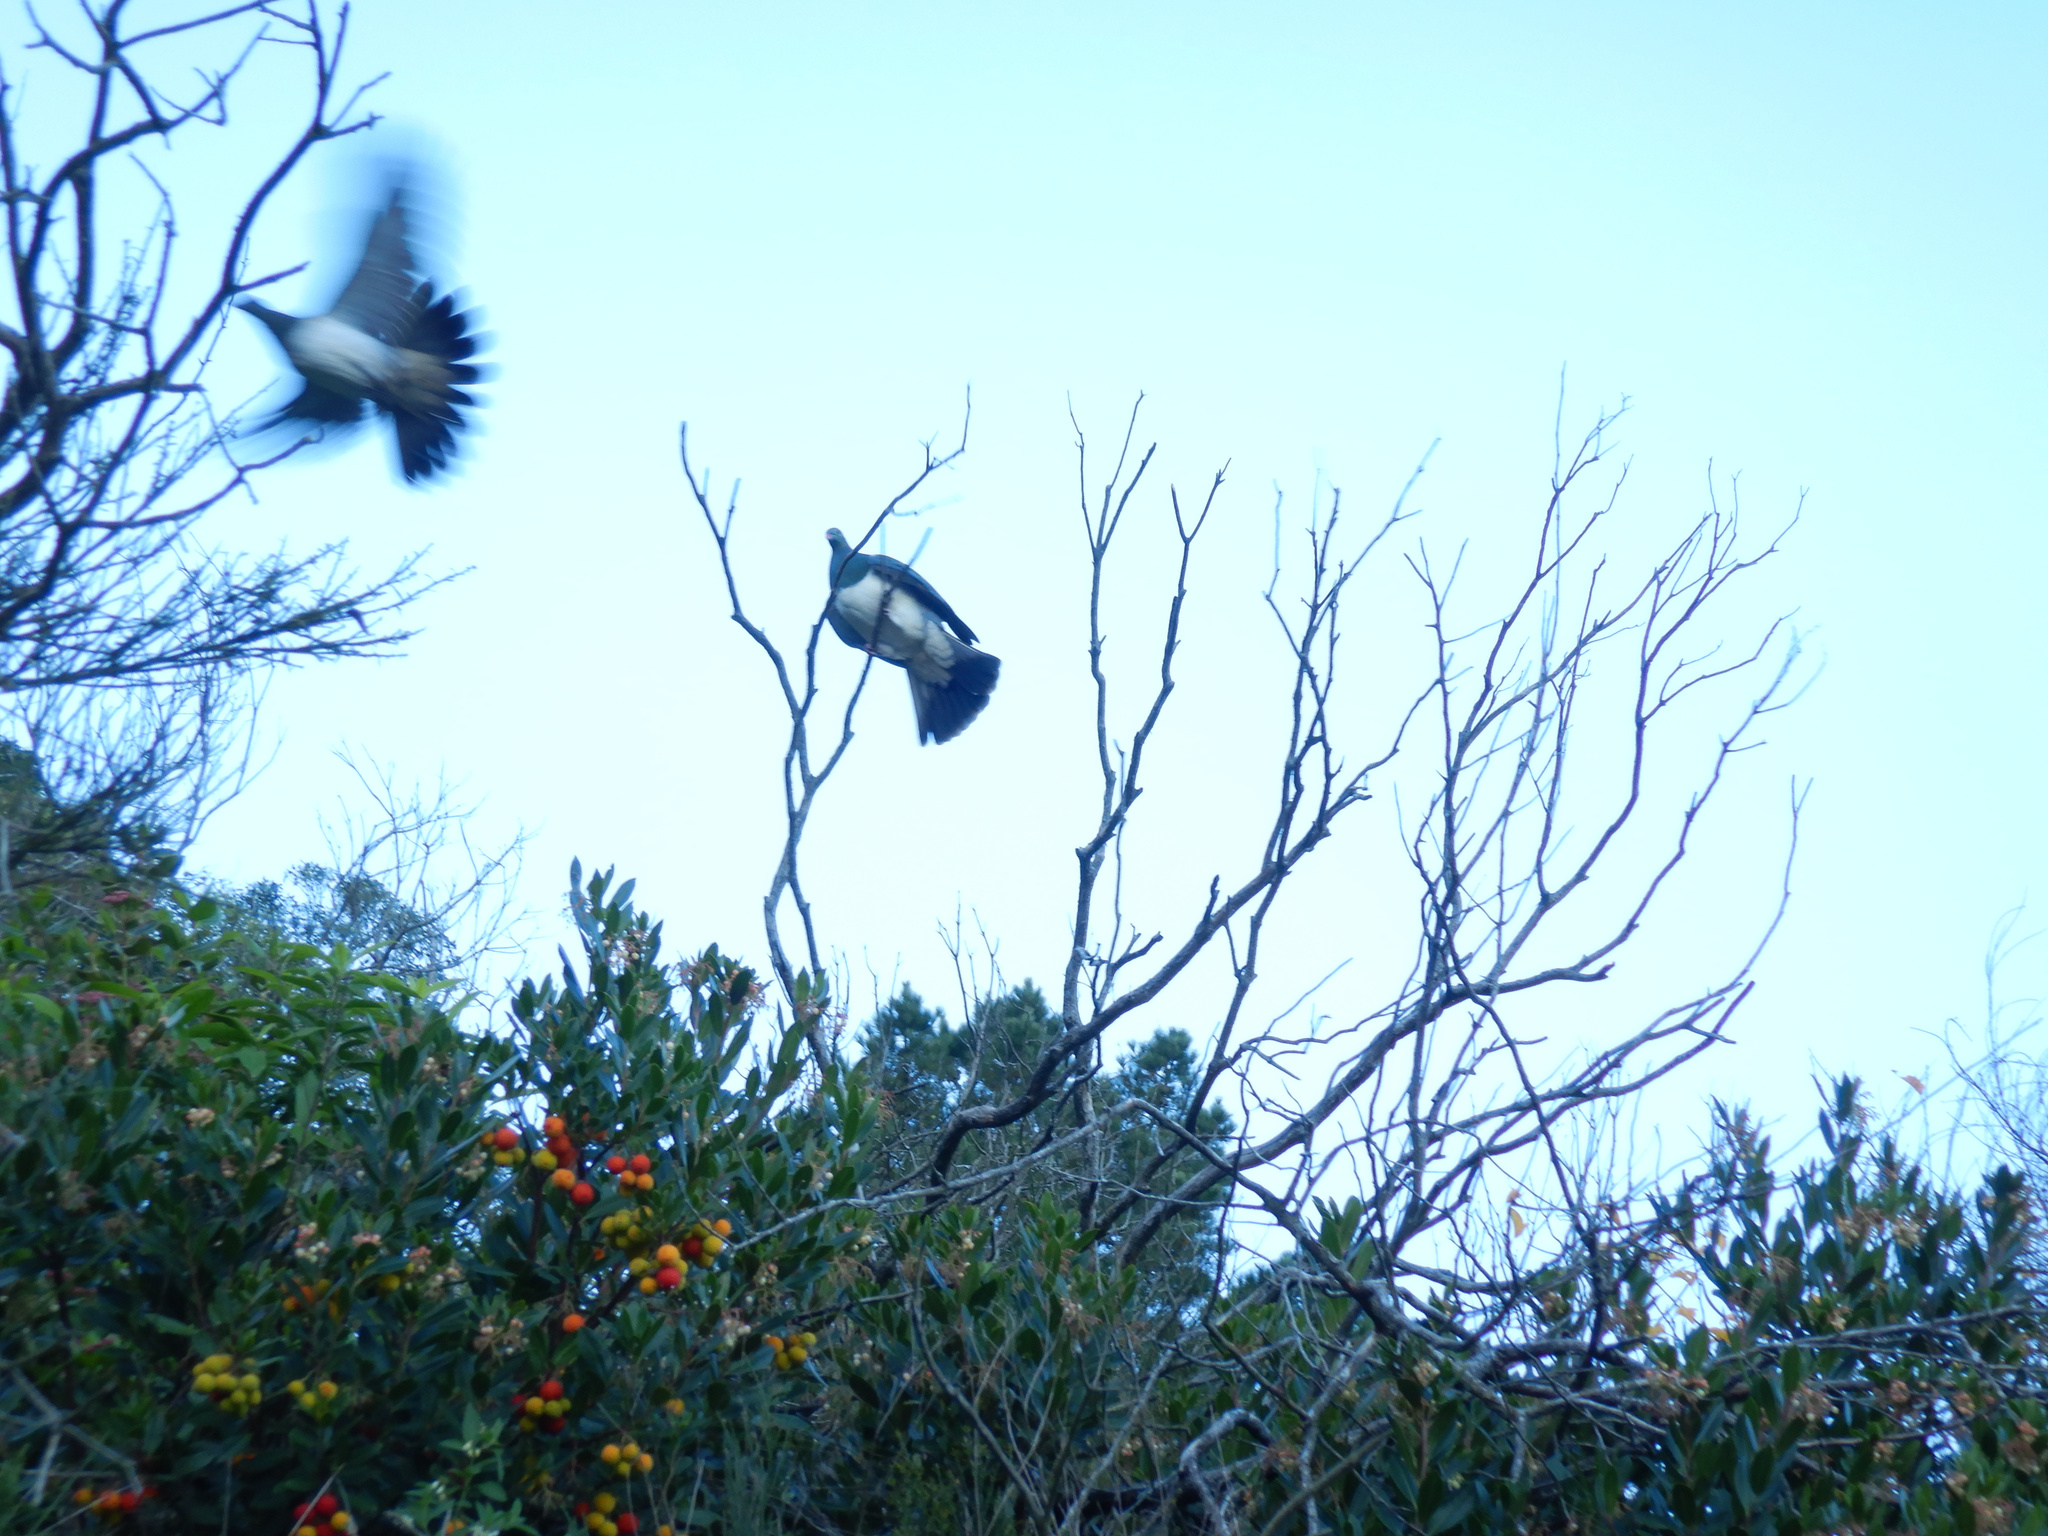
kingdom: Animalia
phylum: Chordata
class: Aves
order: Columbiformes
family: Columbidae
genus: Hemiphaga
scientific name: Hemiphaga novaeseelandiae
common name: New zealand pigeon
